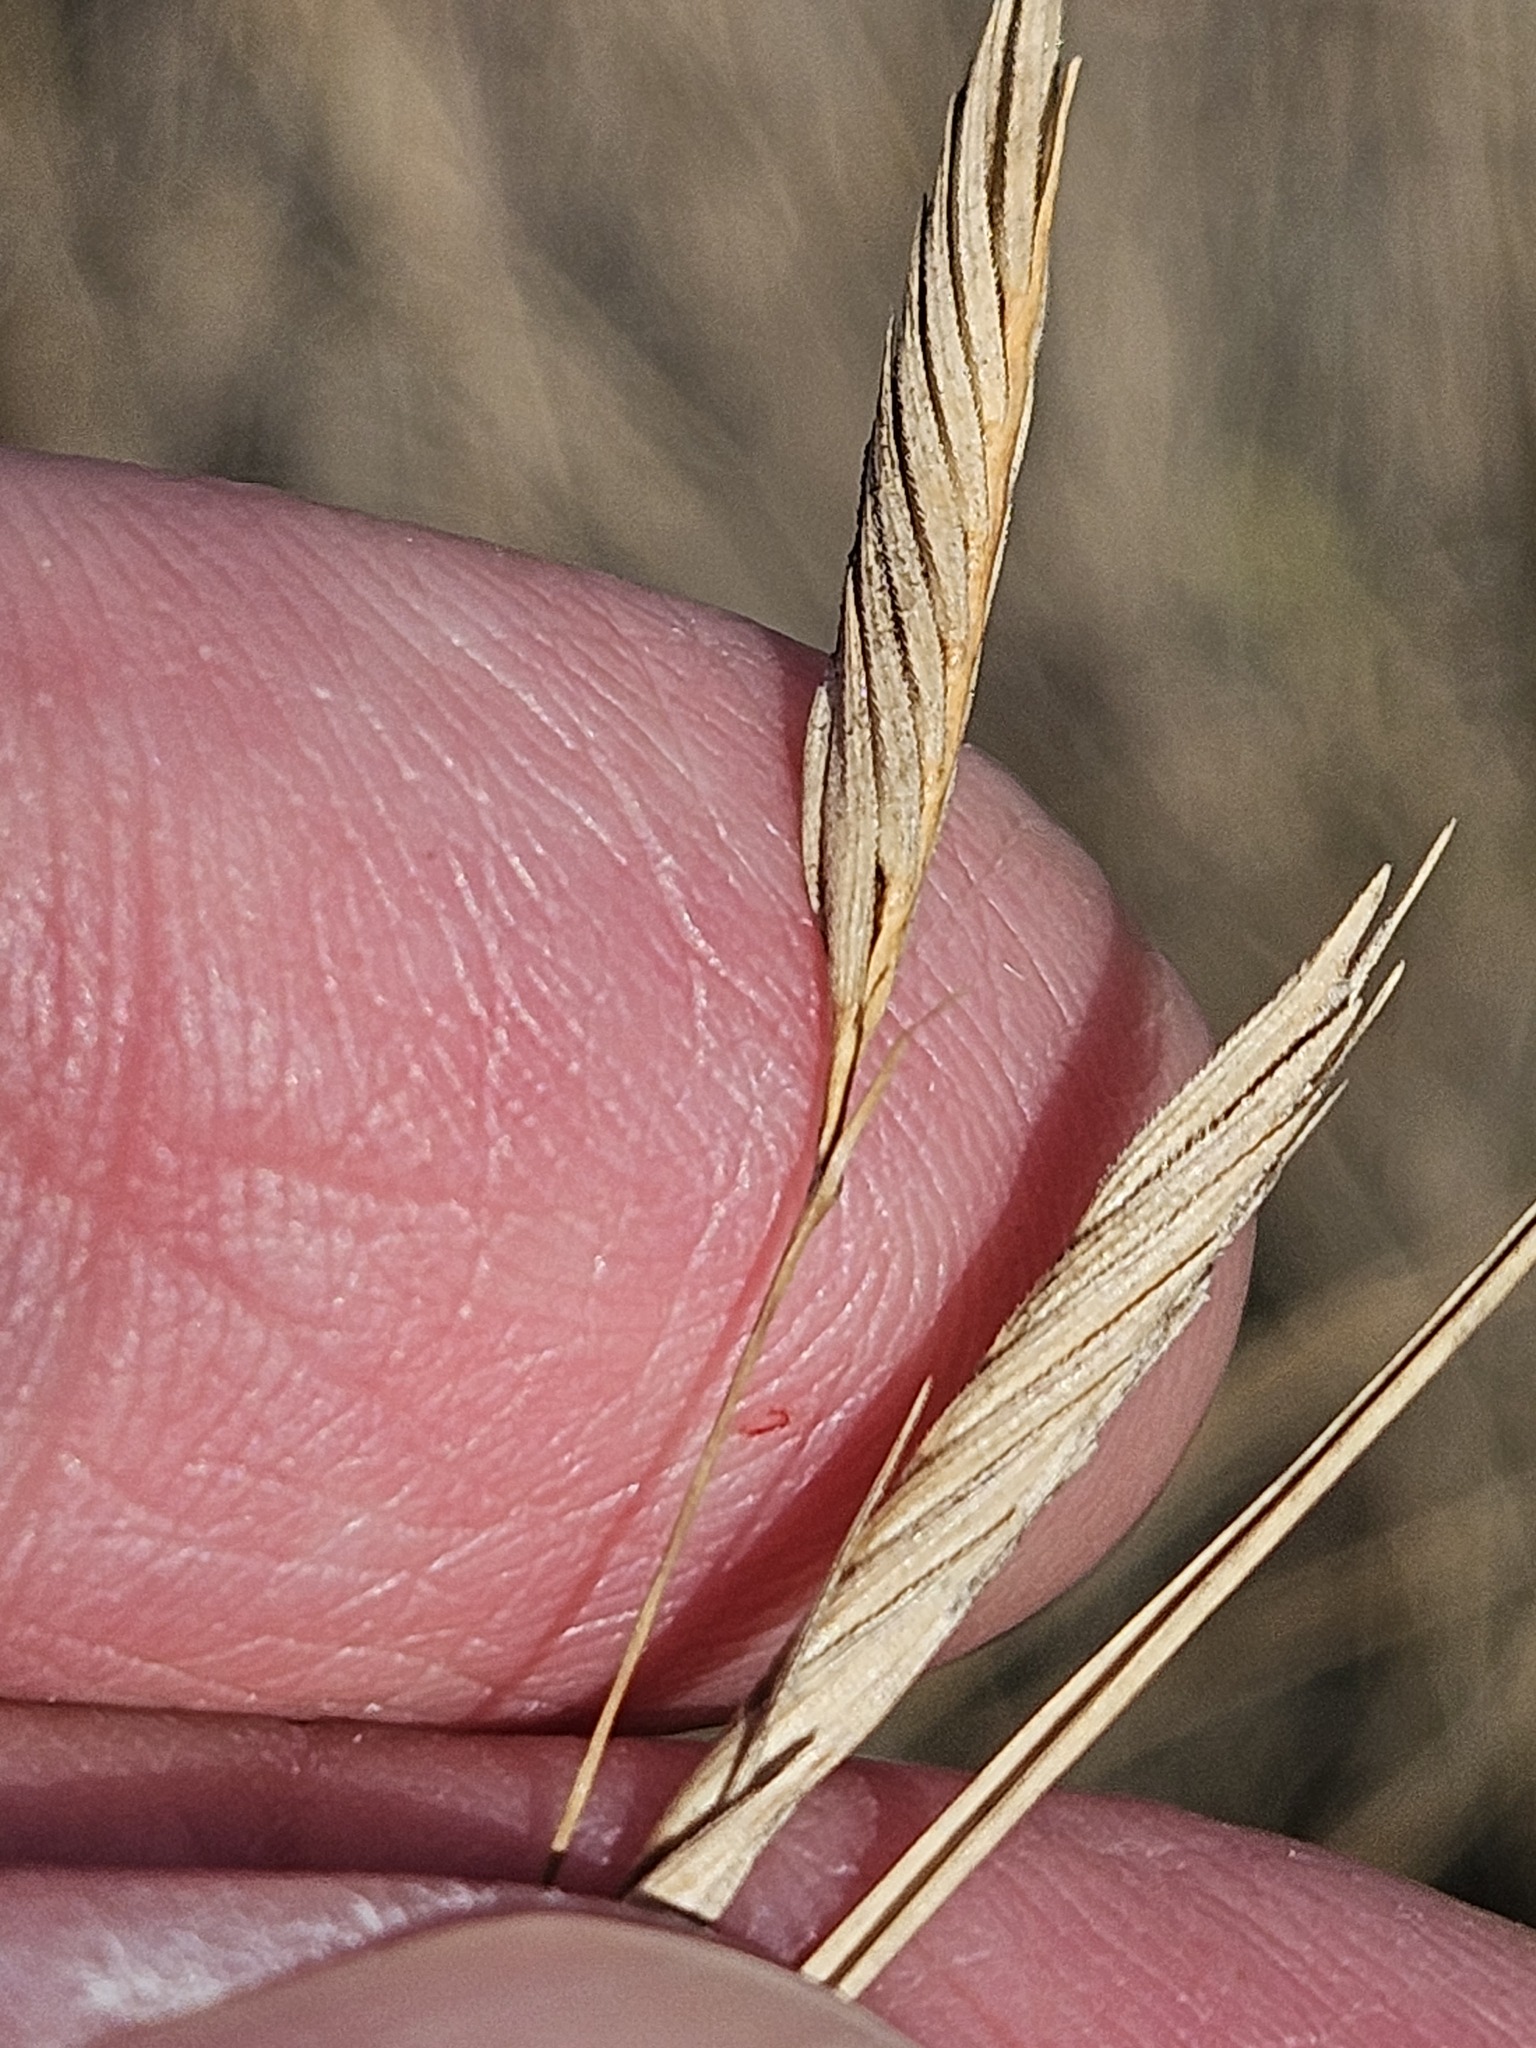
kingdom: Plantae
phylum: Tracheophyta
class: Liliopsida
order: Poales
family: Poaceae
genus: Sporobolus
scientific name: Sporobolus pumilus
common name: Highwater grass
